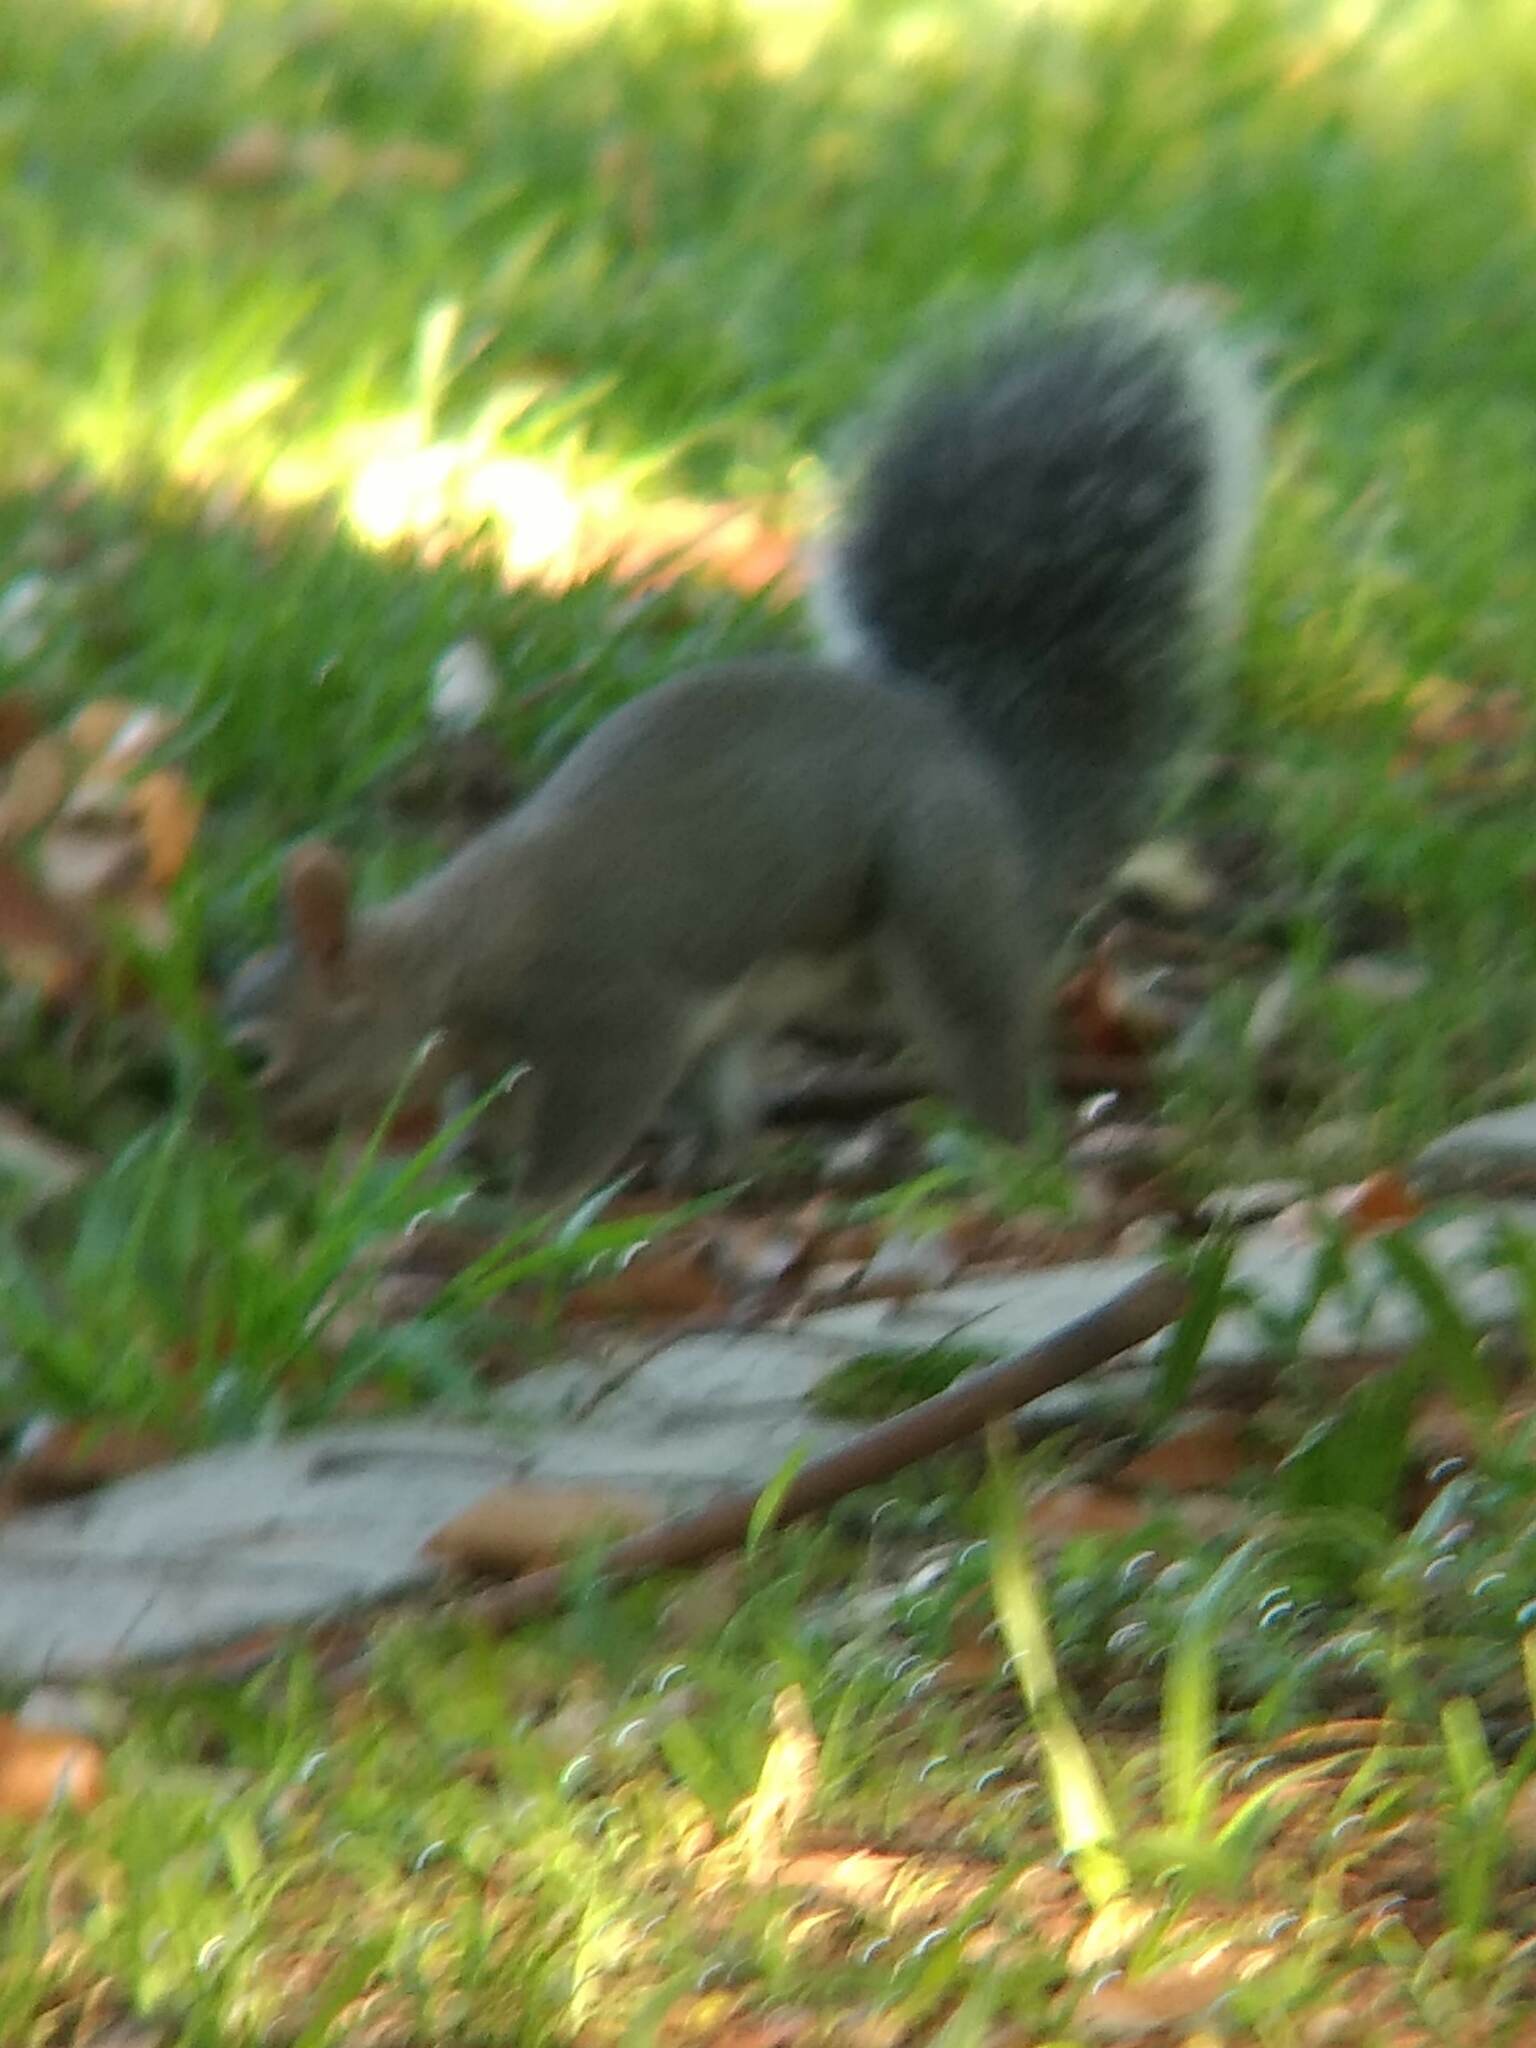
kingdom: Animalia
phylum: Chordata
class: Mammalia
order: Rodentia
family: Sciuridae
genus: Sciurus
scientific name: Sciurus griseus
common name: Western gray squirrel
